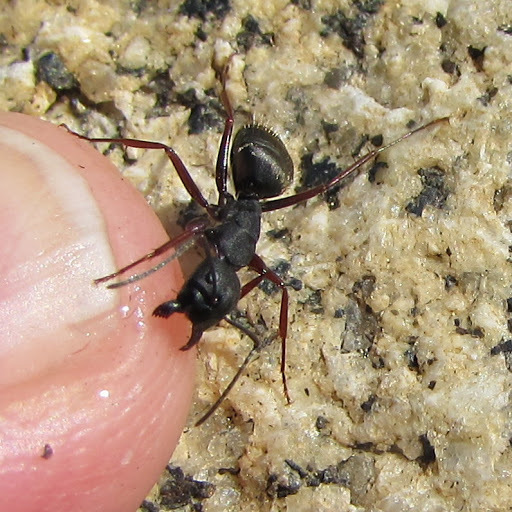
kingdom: Animalia
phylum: Arthropoda
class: Insecta
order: Hymenoptera
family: Formicidae
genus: Camponotus
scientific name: Camponotus modoc
